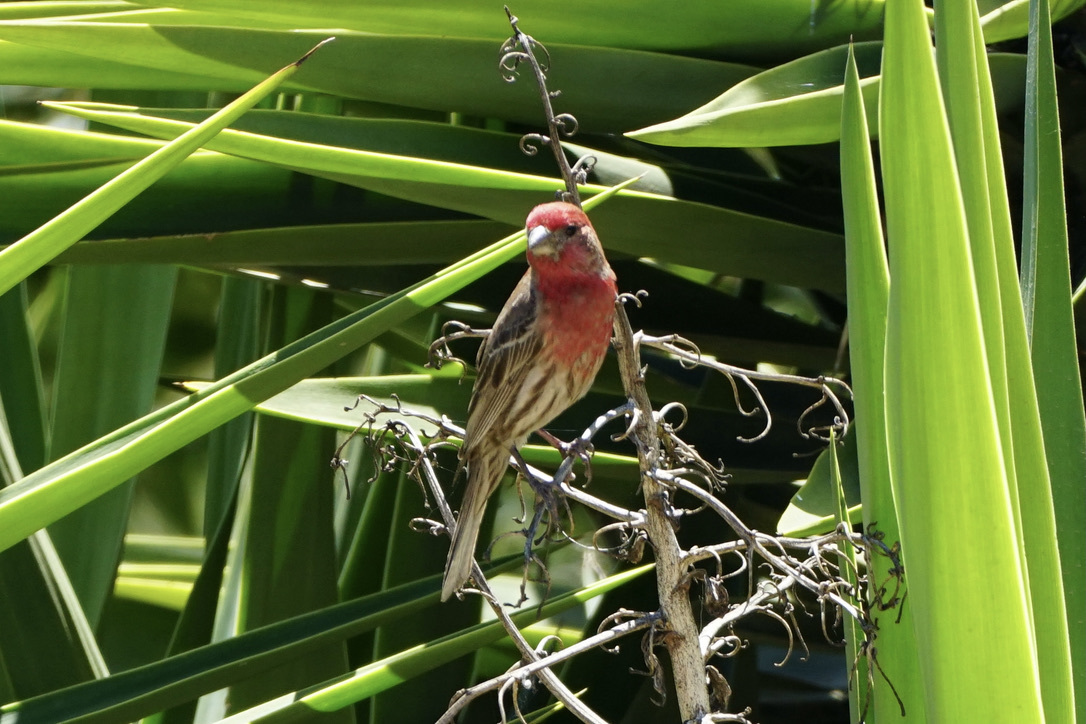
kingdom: Animalia
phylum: Chordata
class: Aves
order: Passeriformes
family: Fringillidae
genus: Haemorhous
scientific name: Haemorhous mexicanus
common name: House finch
